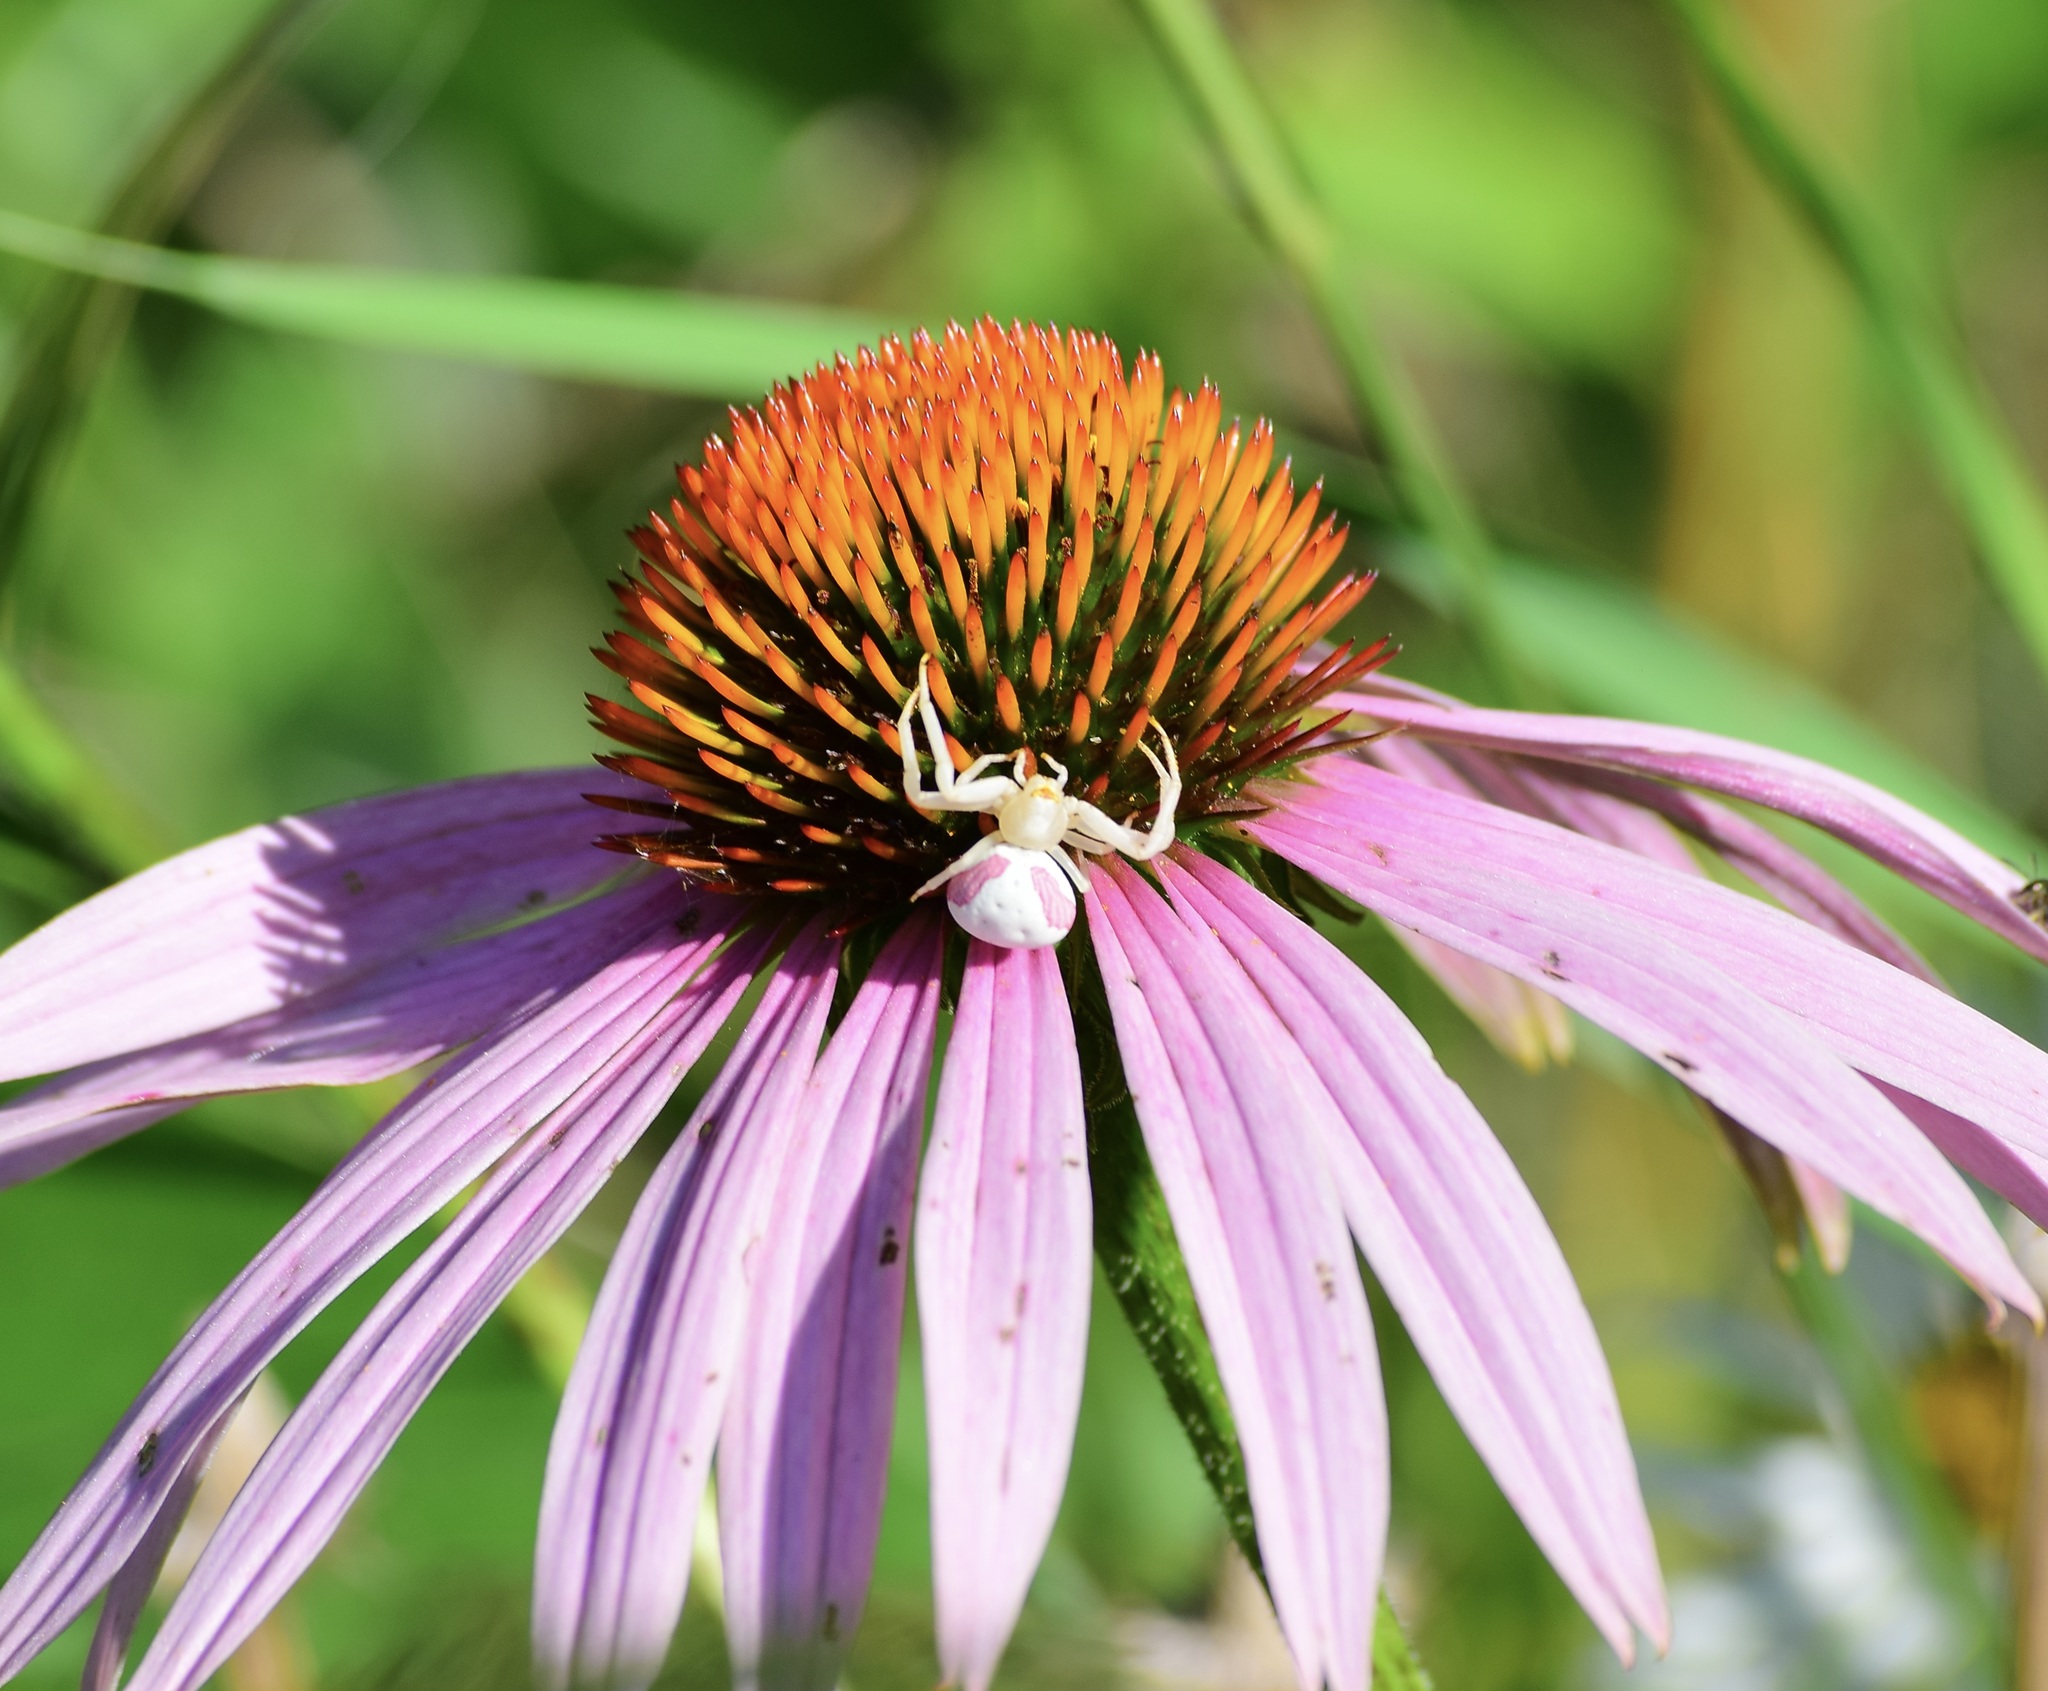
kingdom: Animalia
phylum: Arthropoda
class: Arachnida
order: Araneae
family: Thomisidae
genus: Misumena
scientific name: Misumena vatia
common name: Goldenrod crab spider
